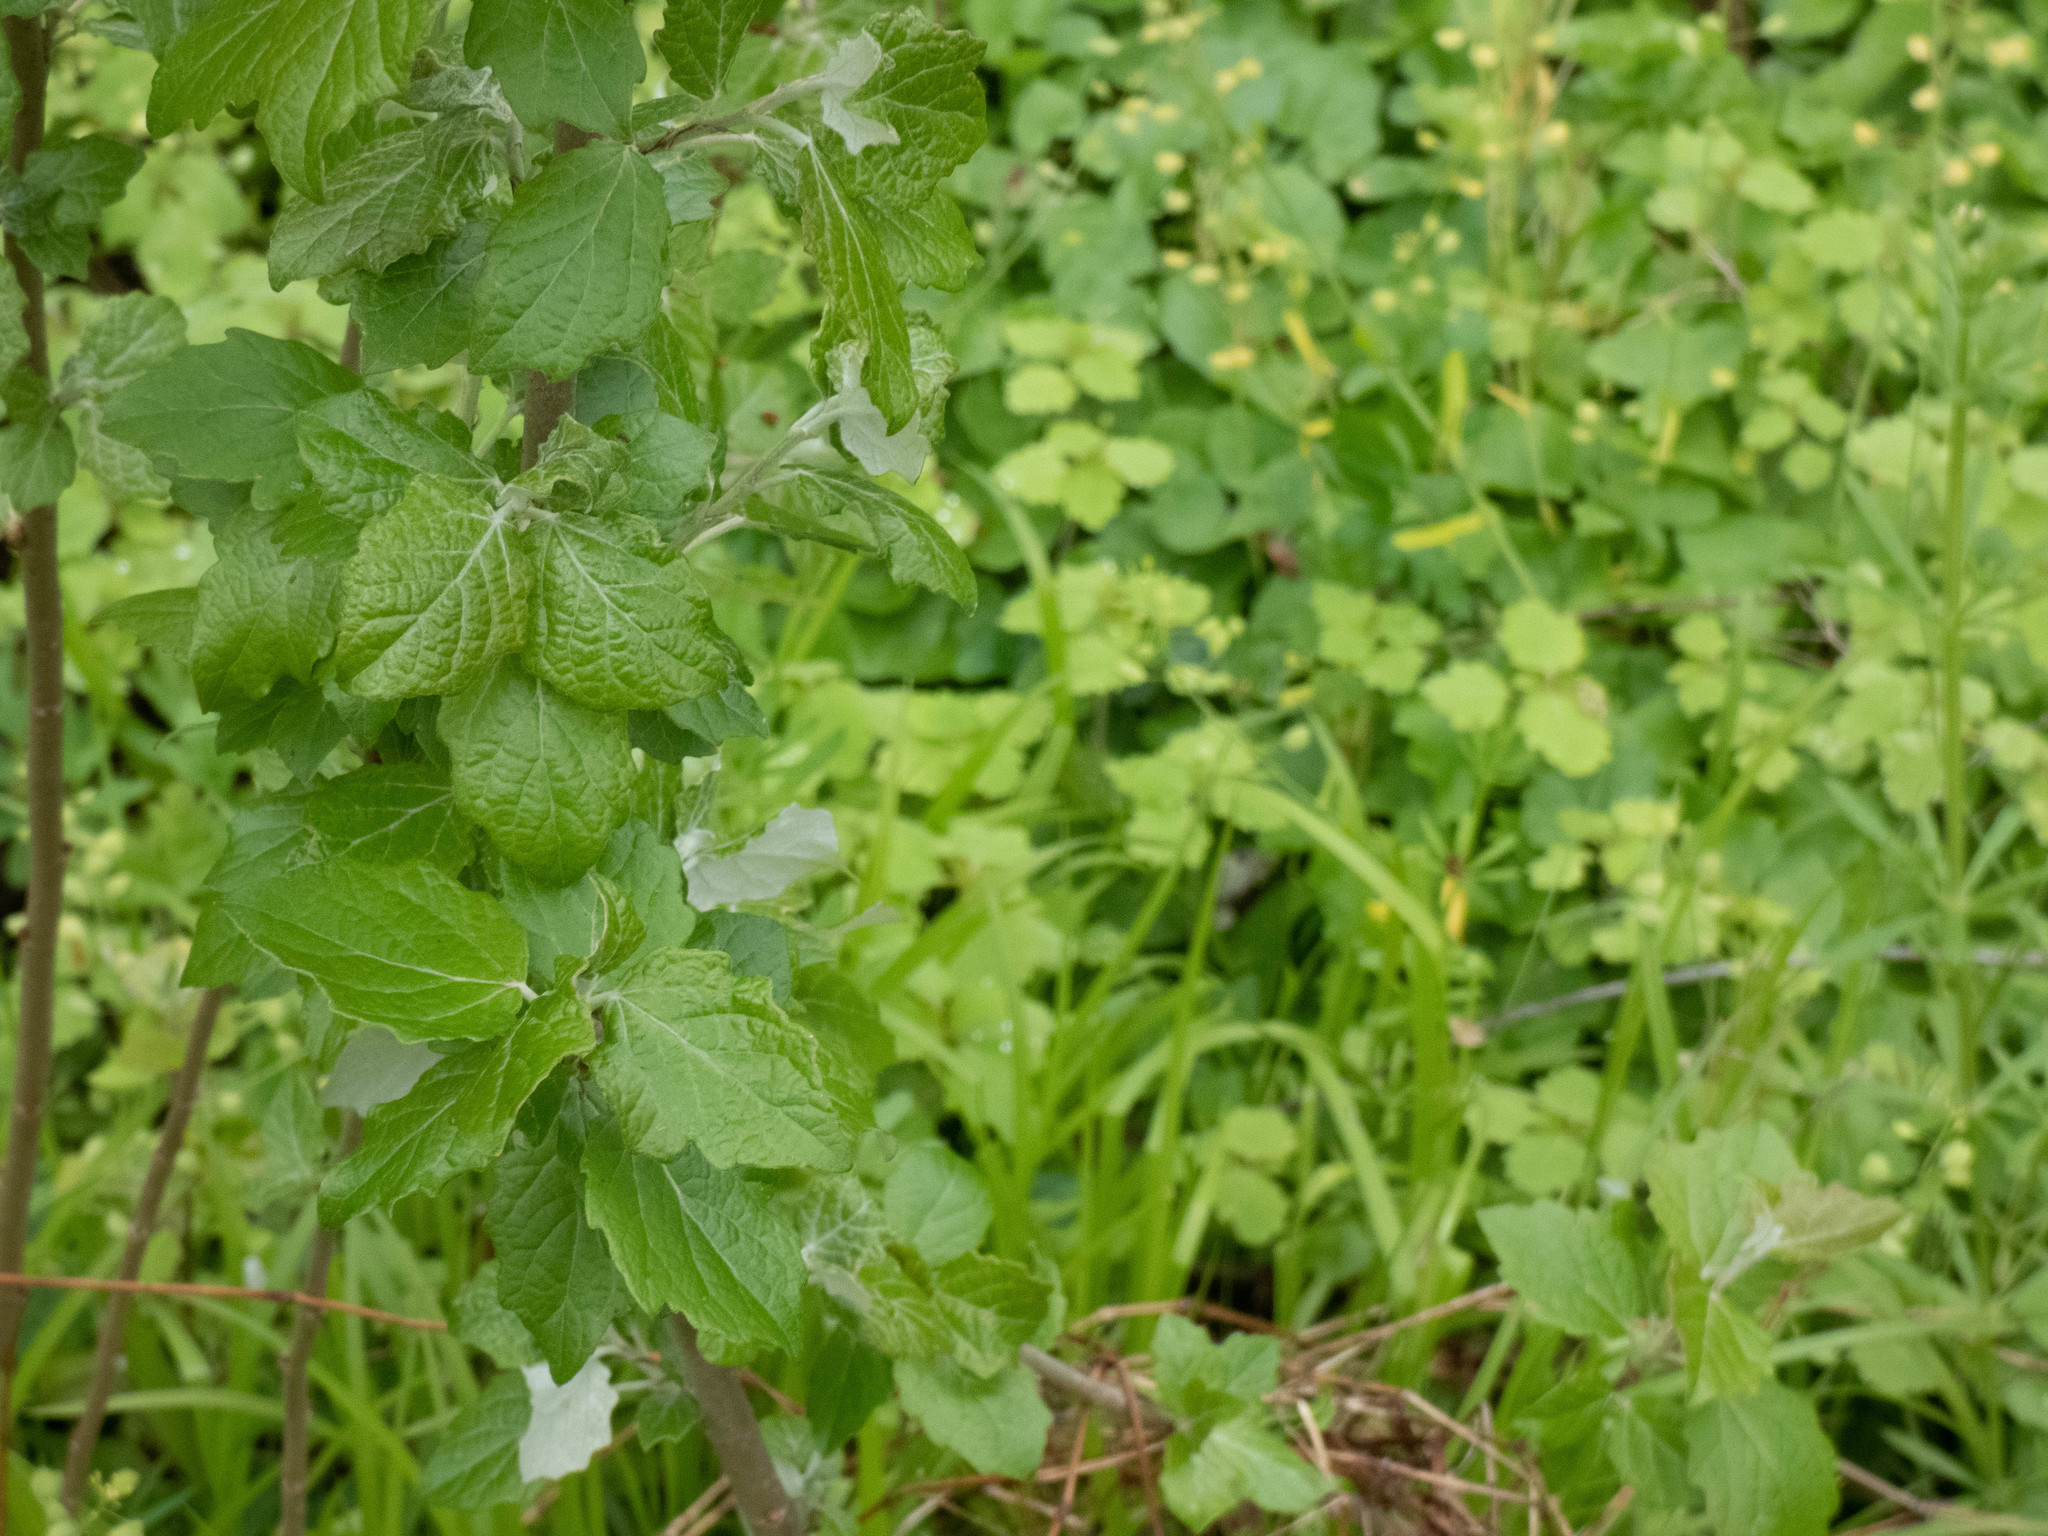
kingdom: Plantae
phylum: Tracheophyta
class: Magnoliopsida
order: Malpighiales
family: Salicaceae
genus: Populus
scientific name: Populus alba
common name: White poplar
